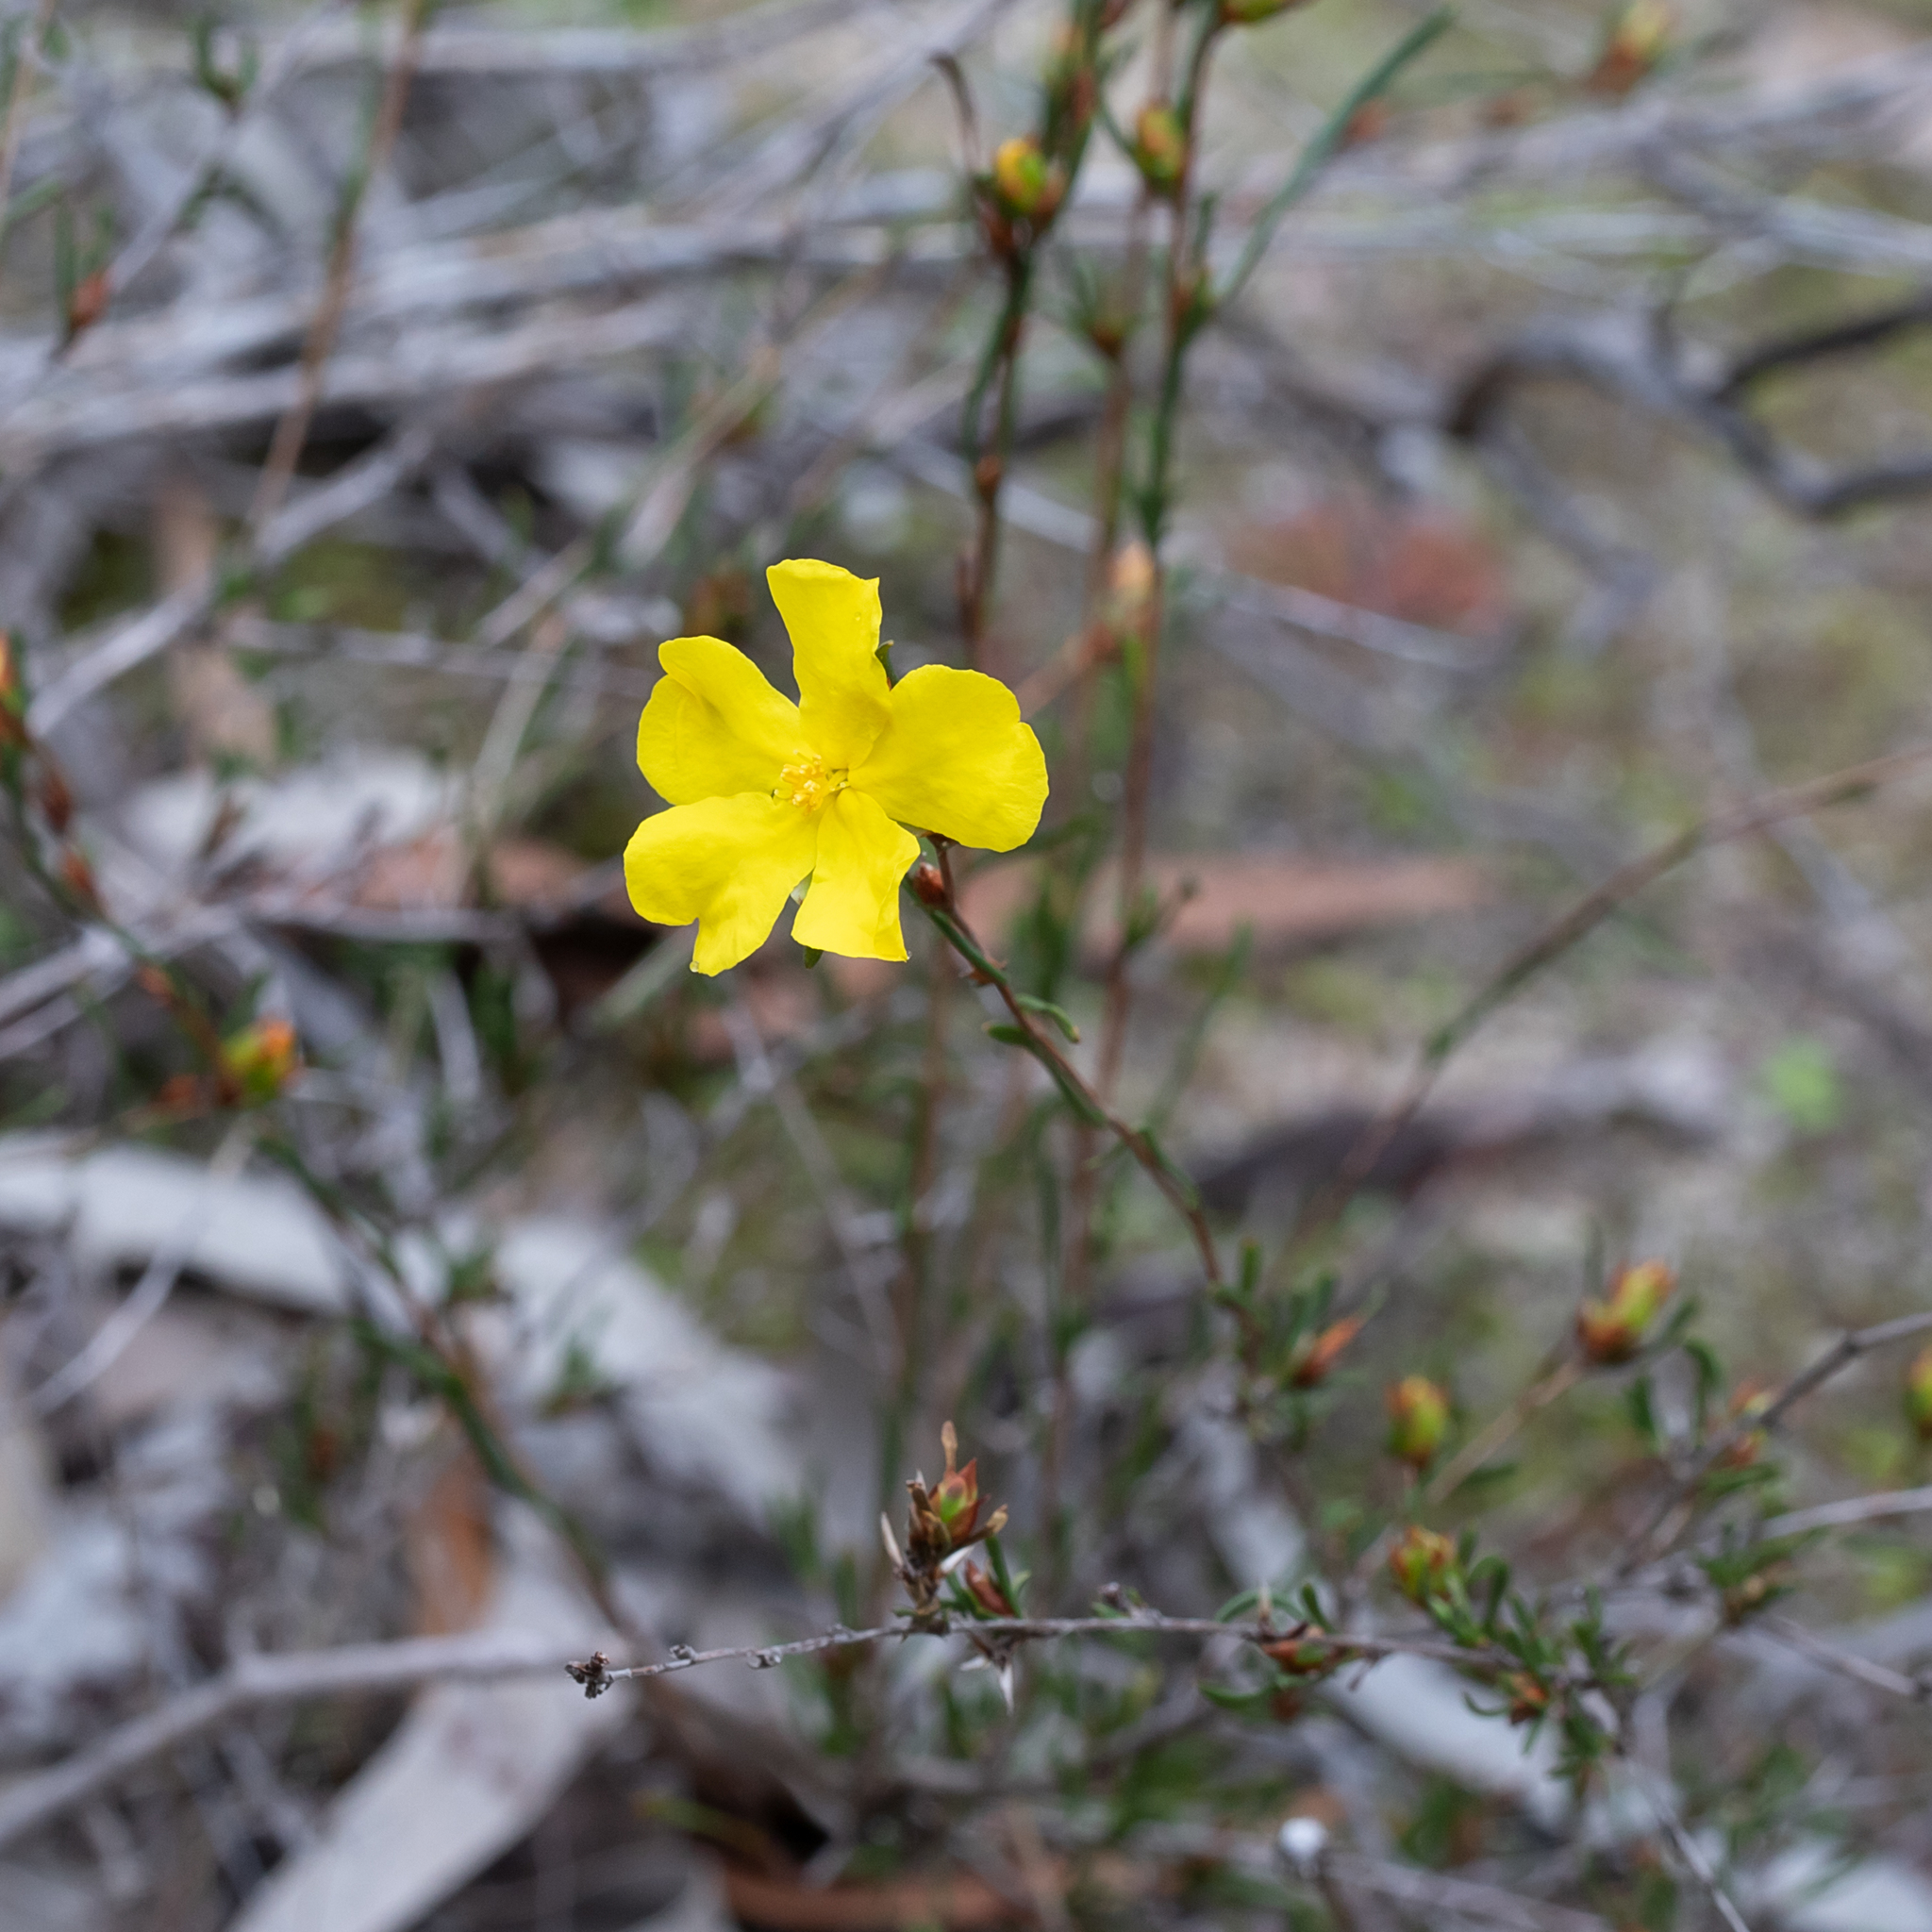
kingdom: Plantae
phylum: Tracheophyta
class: Magnoliopsida
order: Dilleniales
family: Dilleniaceae
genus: Hibbertia
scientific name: Hibbertia virgata
